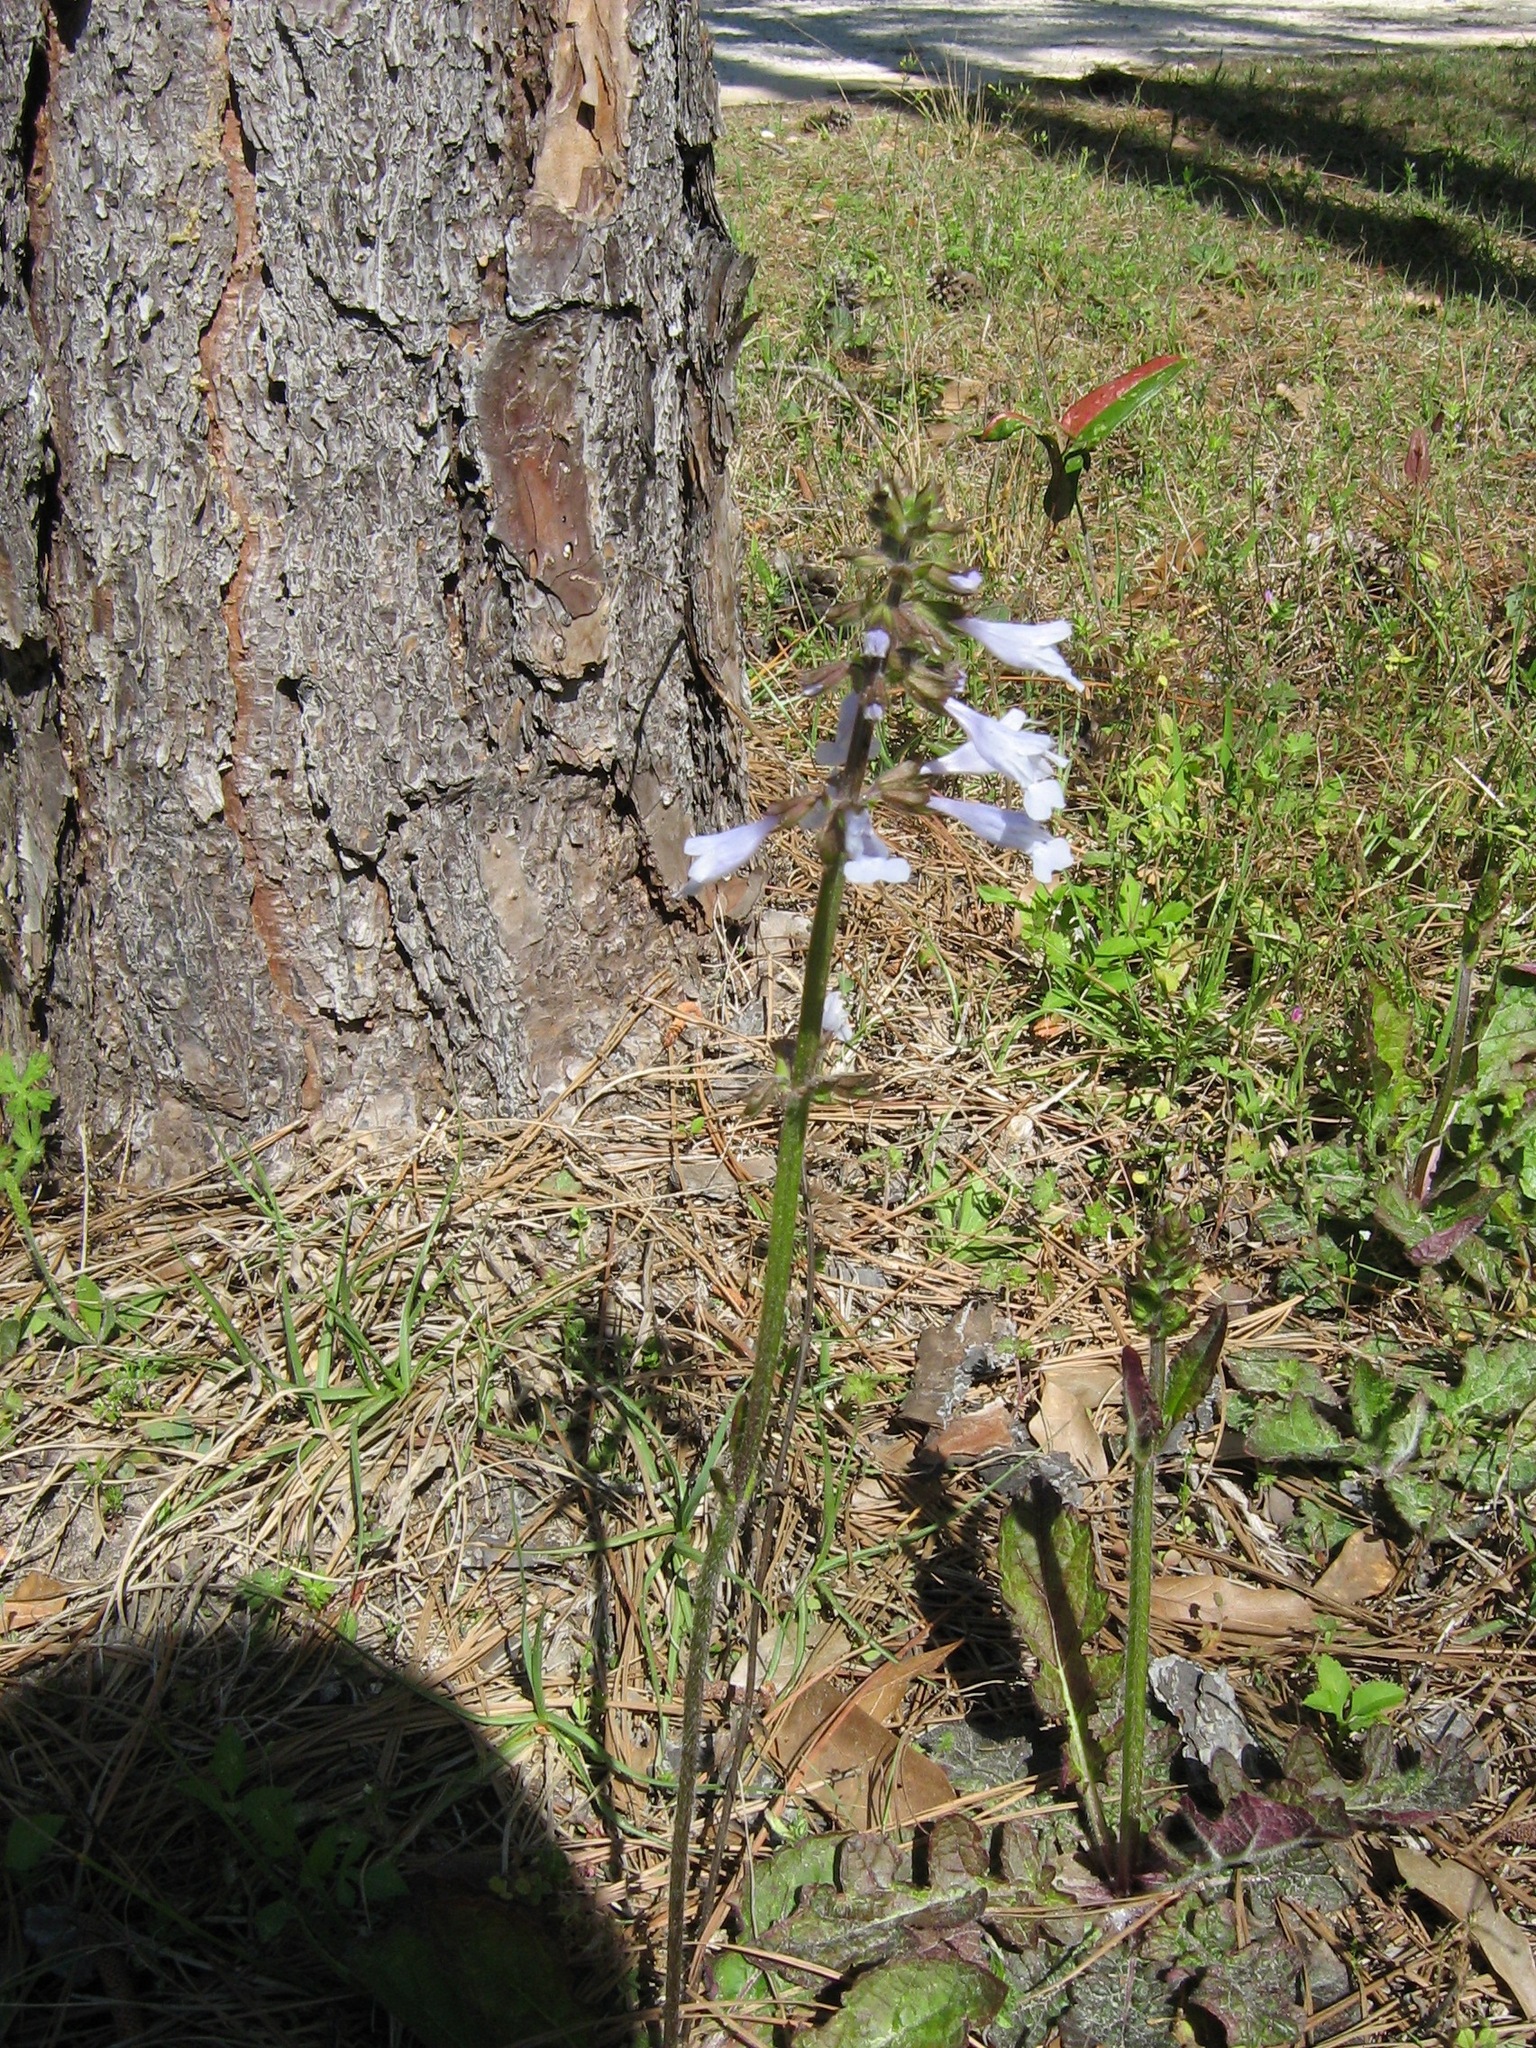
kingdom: Plantae
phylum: Tracheophyta
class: Magnoliopsida
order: Lamiales
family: Lamiaceae
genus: Salvia
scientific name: Salvia lyrata
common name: Cancerweed
